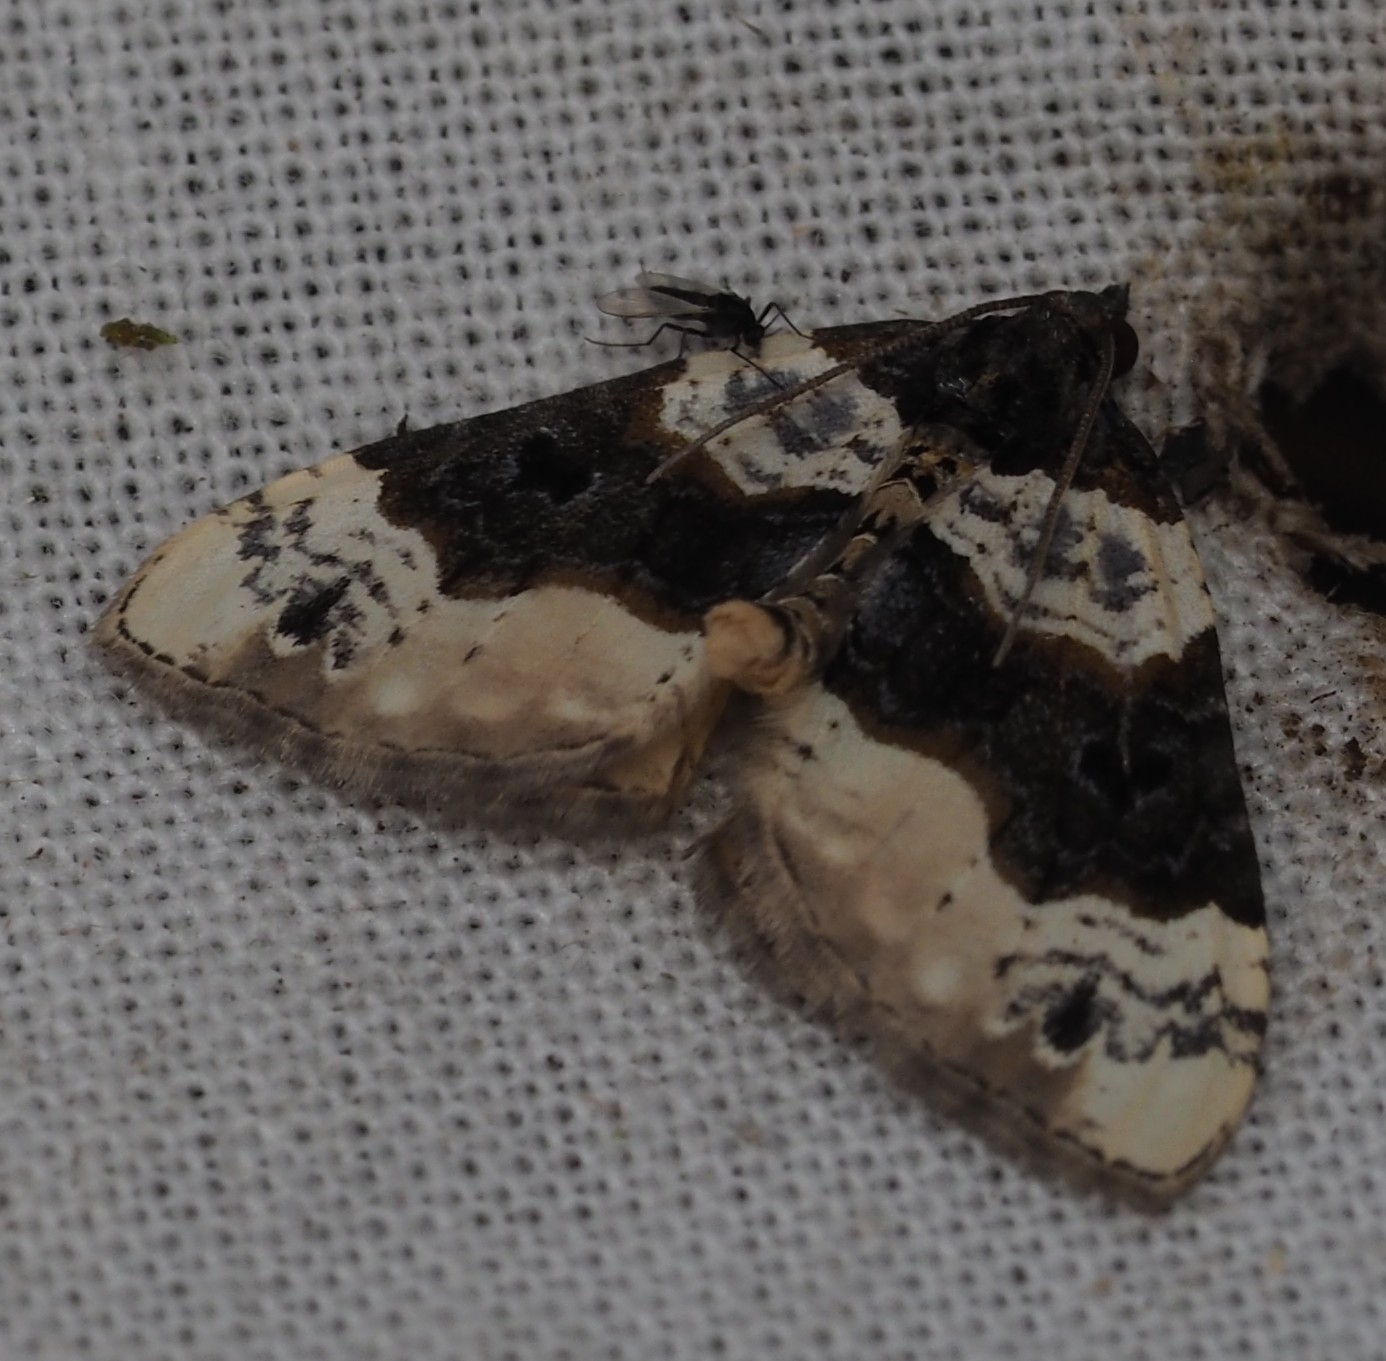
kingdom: Animalia
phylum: Arthropoda
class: Insecta
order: Lepidoptera
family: Geometridae
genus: Cosmorhoe
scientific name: Cosmorhoe ocellata
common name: Purple bar
